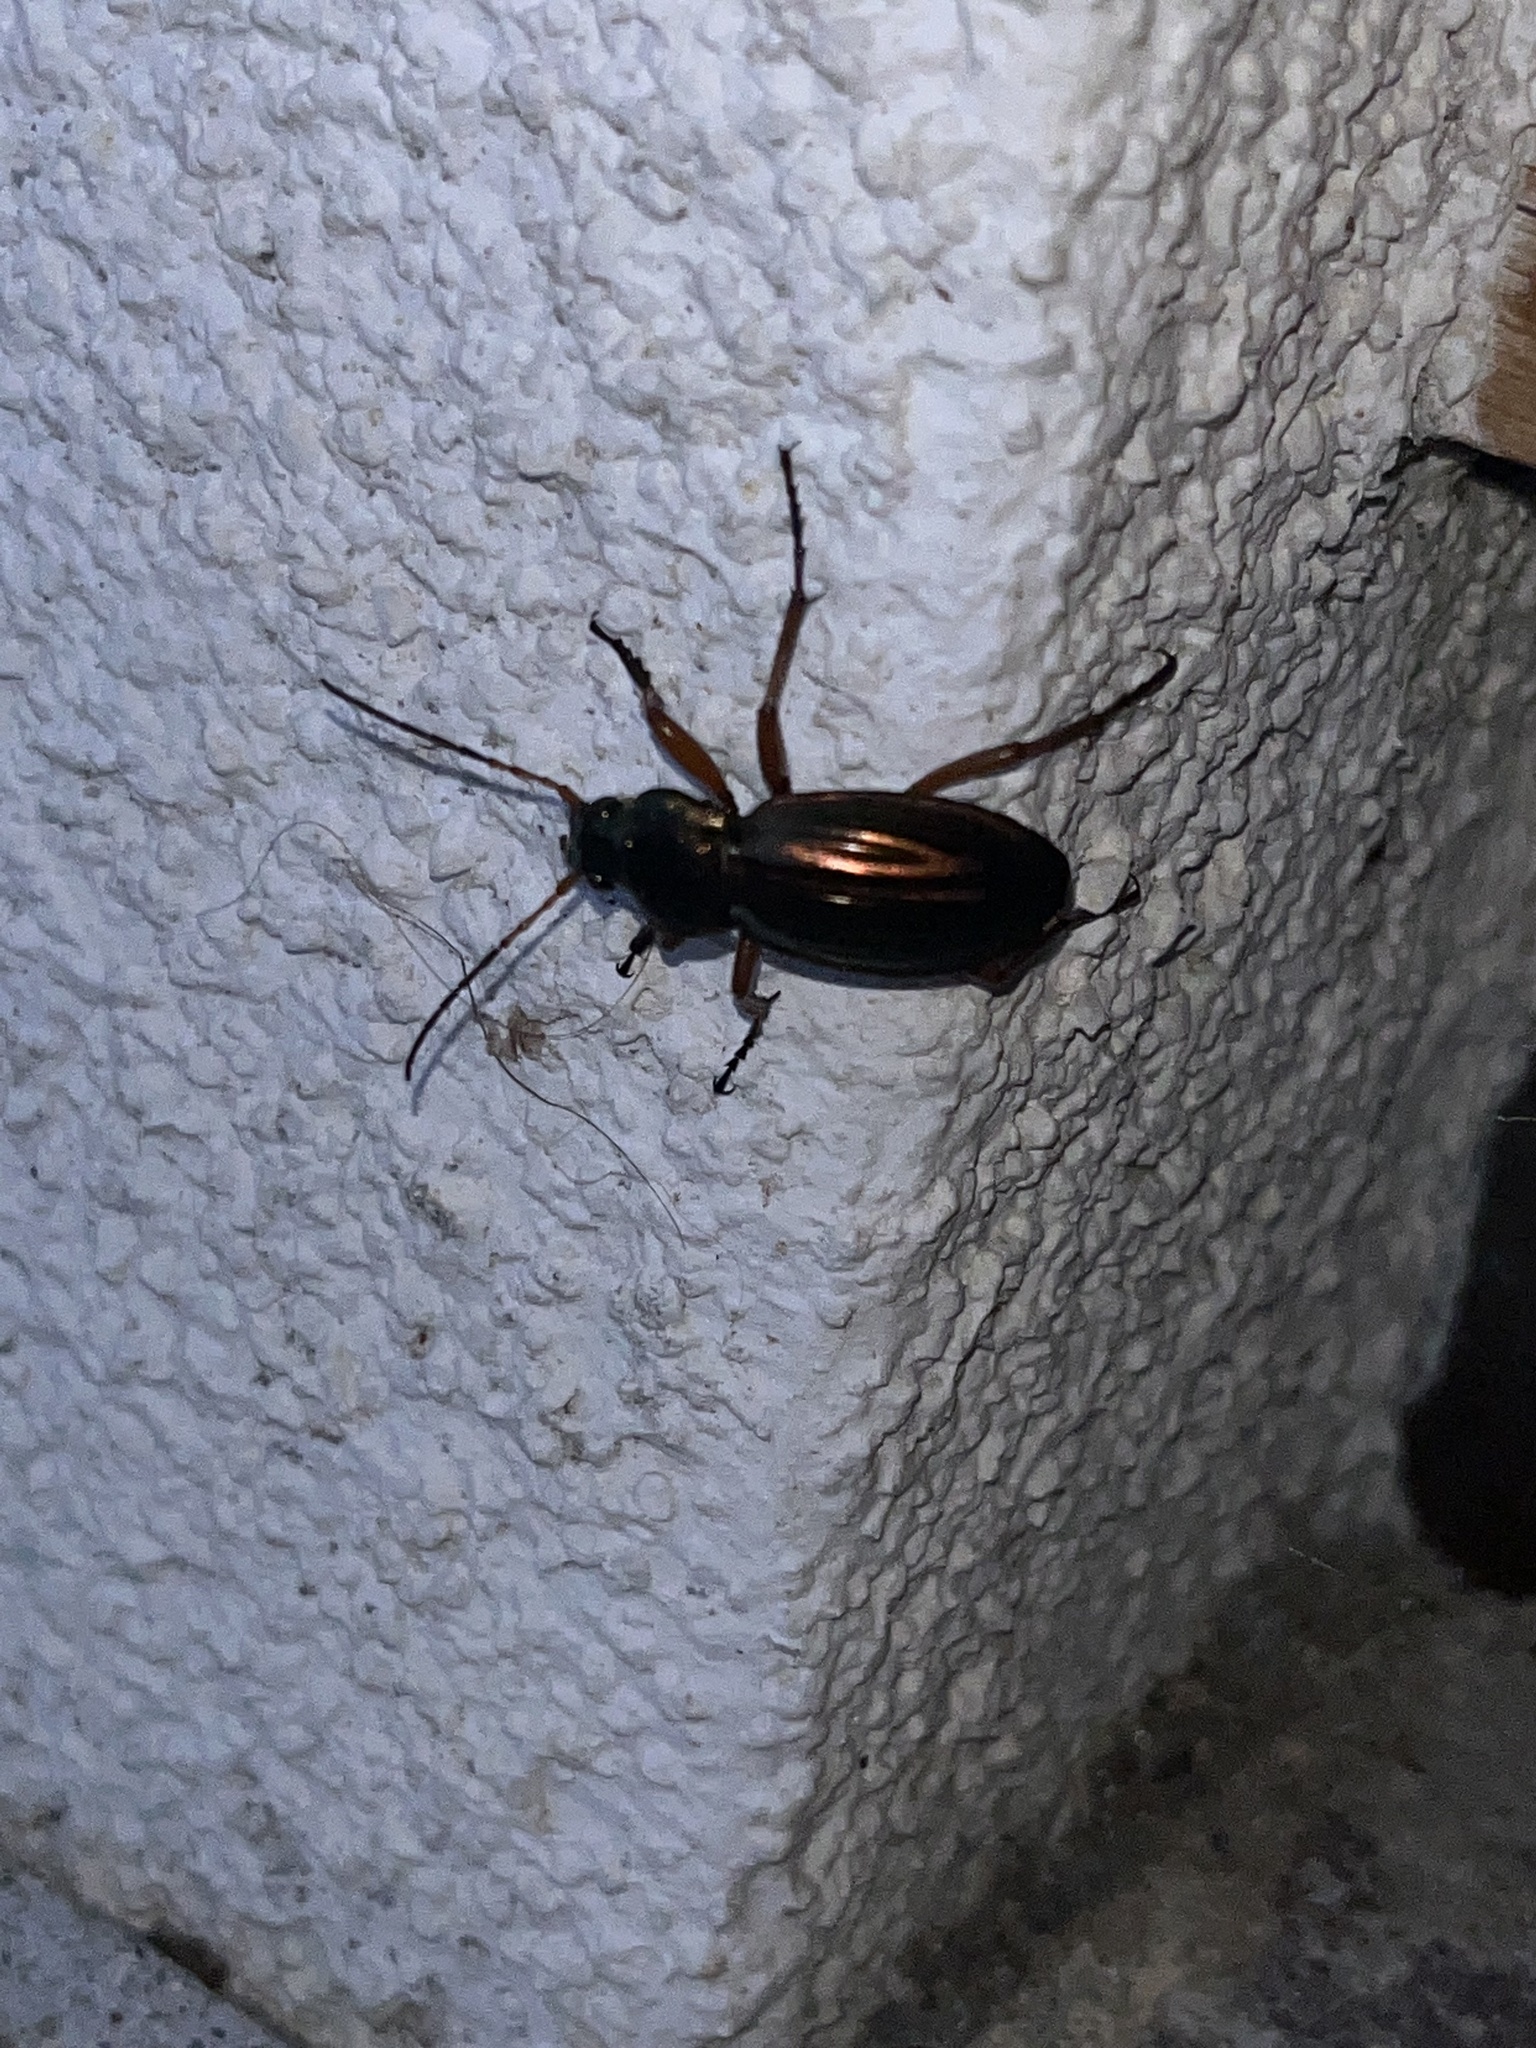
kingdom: Animalia
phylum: Arthropoda
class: Insecta
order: Coleoptera
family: Carabidae
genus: Carabus
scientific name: Carabus auratus
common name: Golden ground beetle
